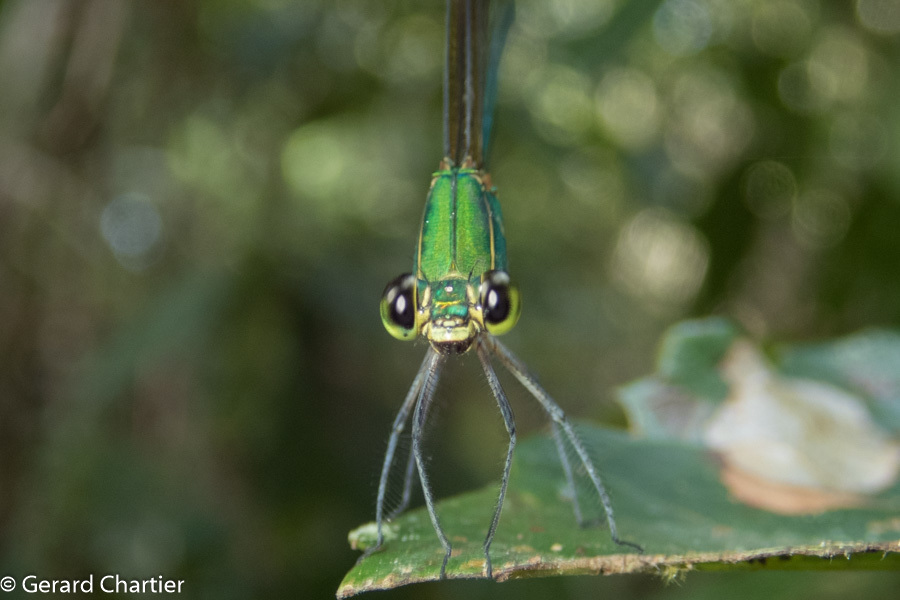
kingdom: Animalia
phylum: Arthropoda
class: Insecta
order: Odonata
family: Calopterygidae
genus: Vestalis
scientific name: Vestalis gracilis
